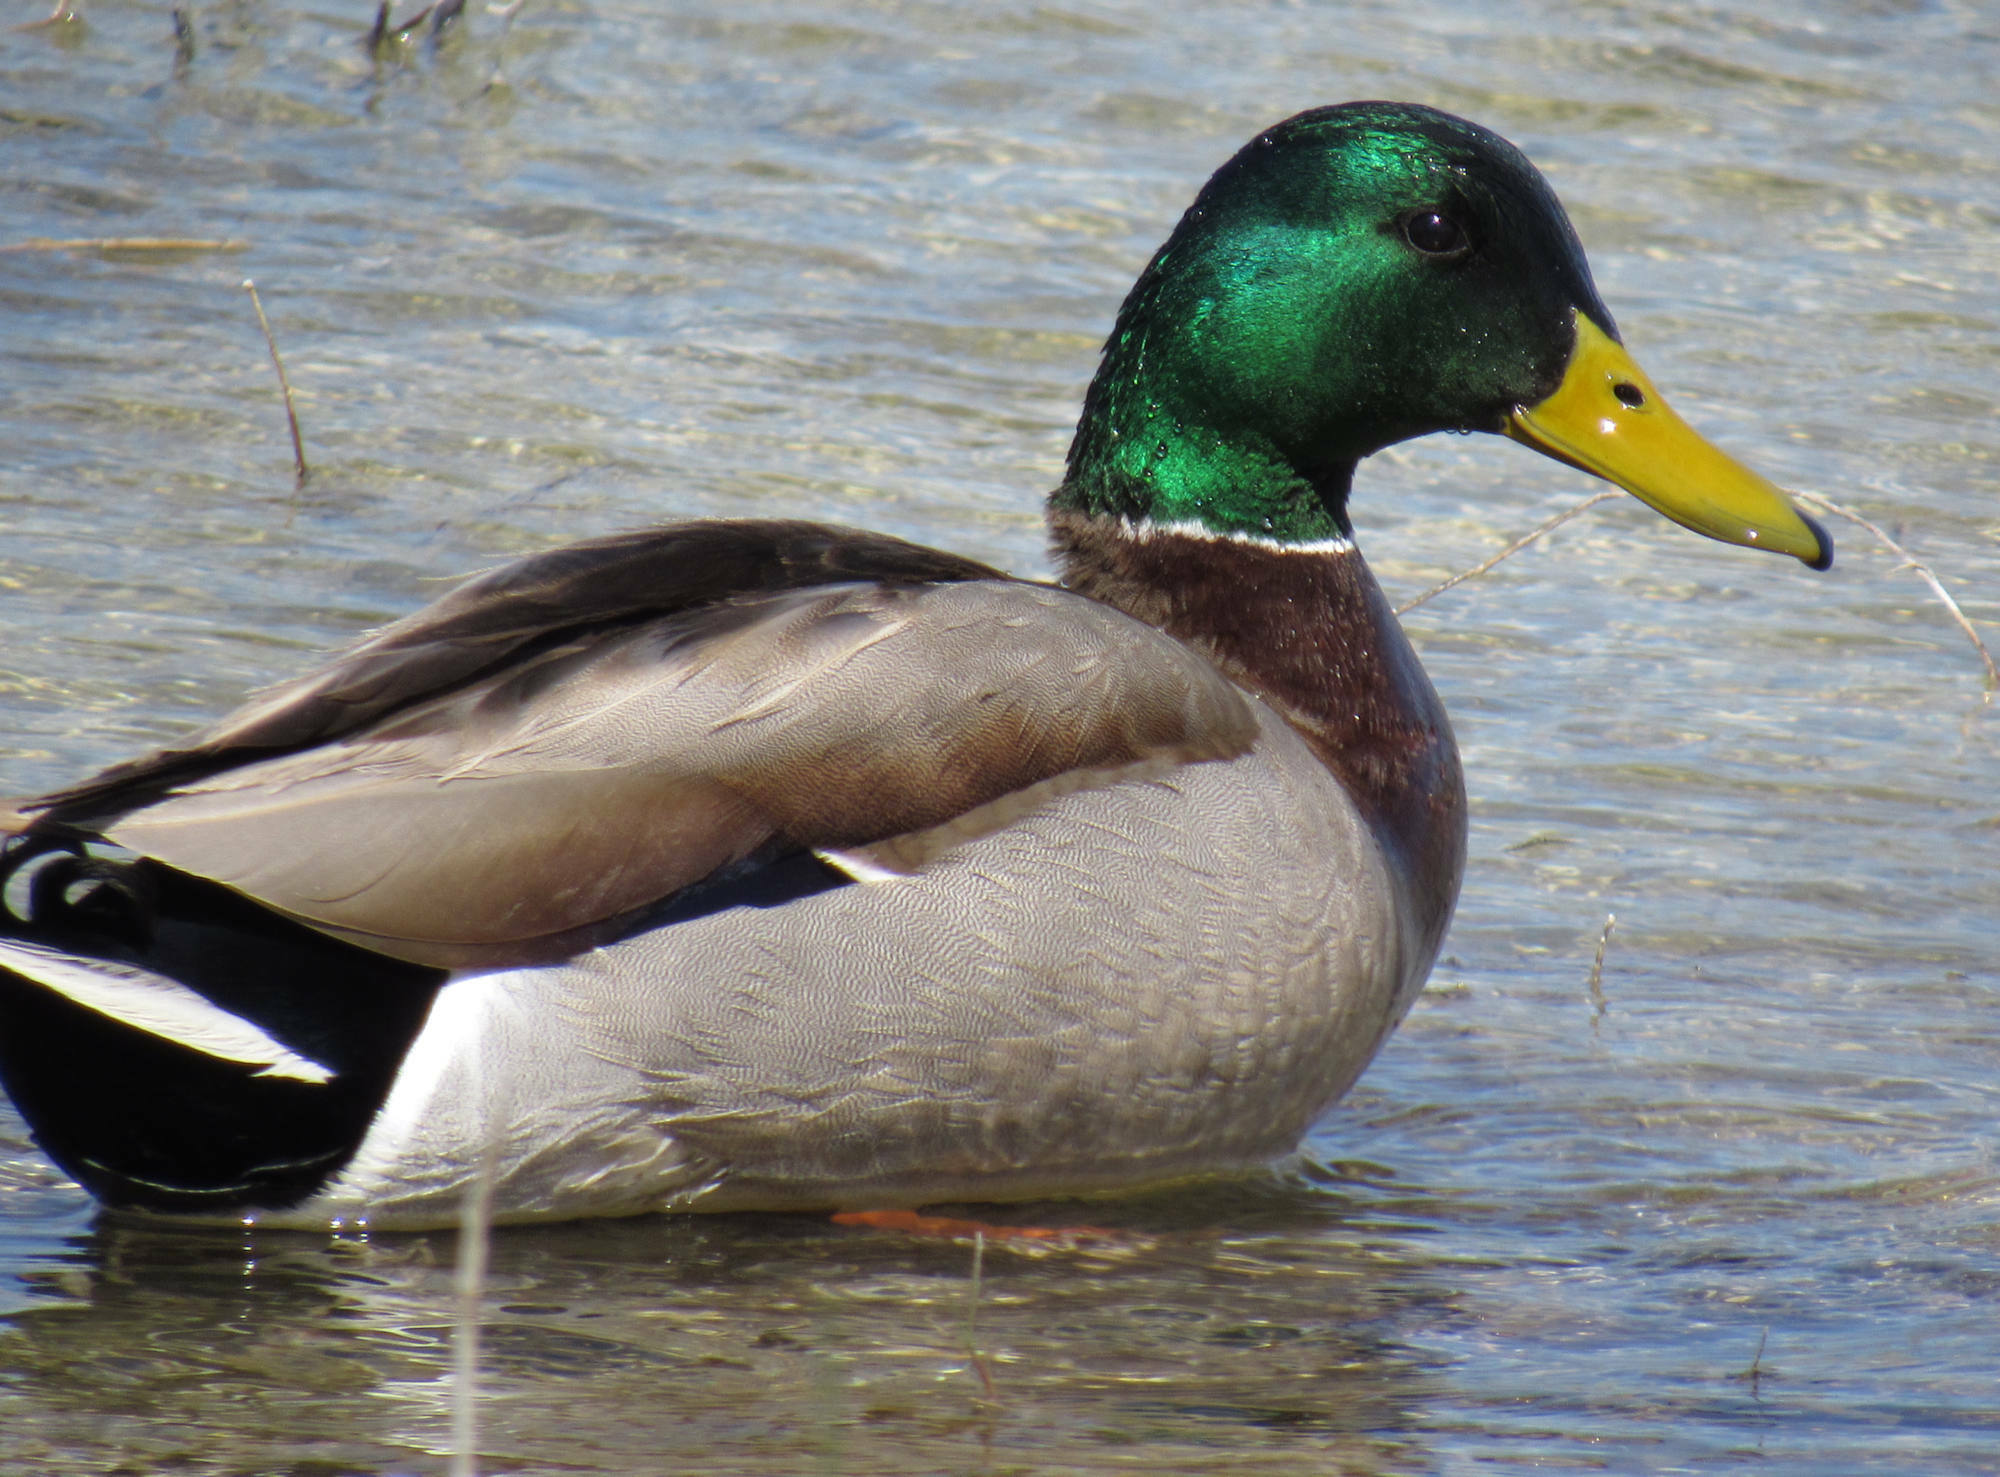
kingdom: Animalia
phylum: Chordata
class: Aves
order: Anseriformes
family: Anatidae
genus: Anas
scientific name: Anas platyrhynchos
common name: Mallard
